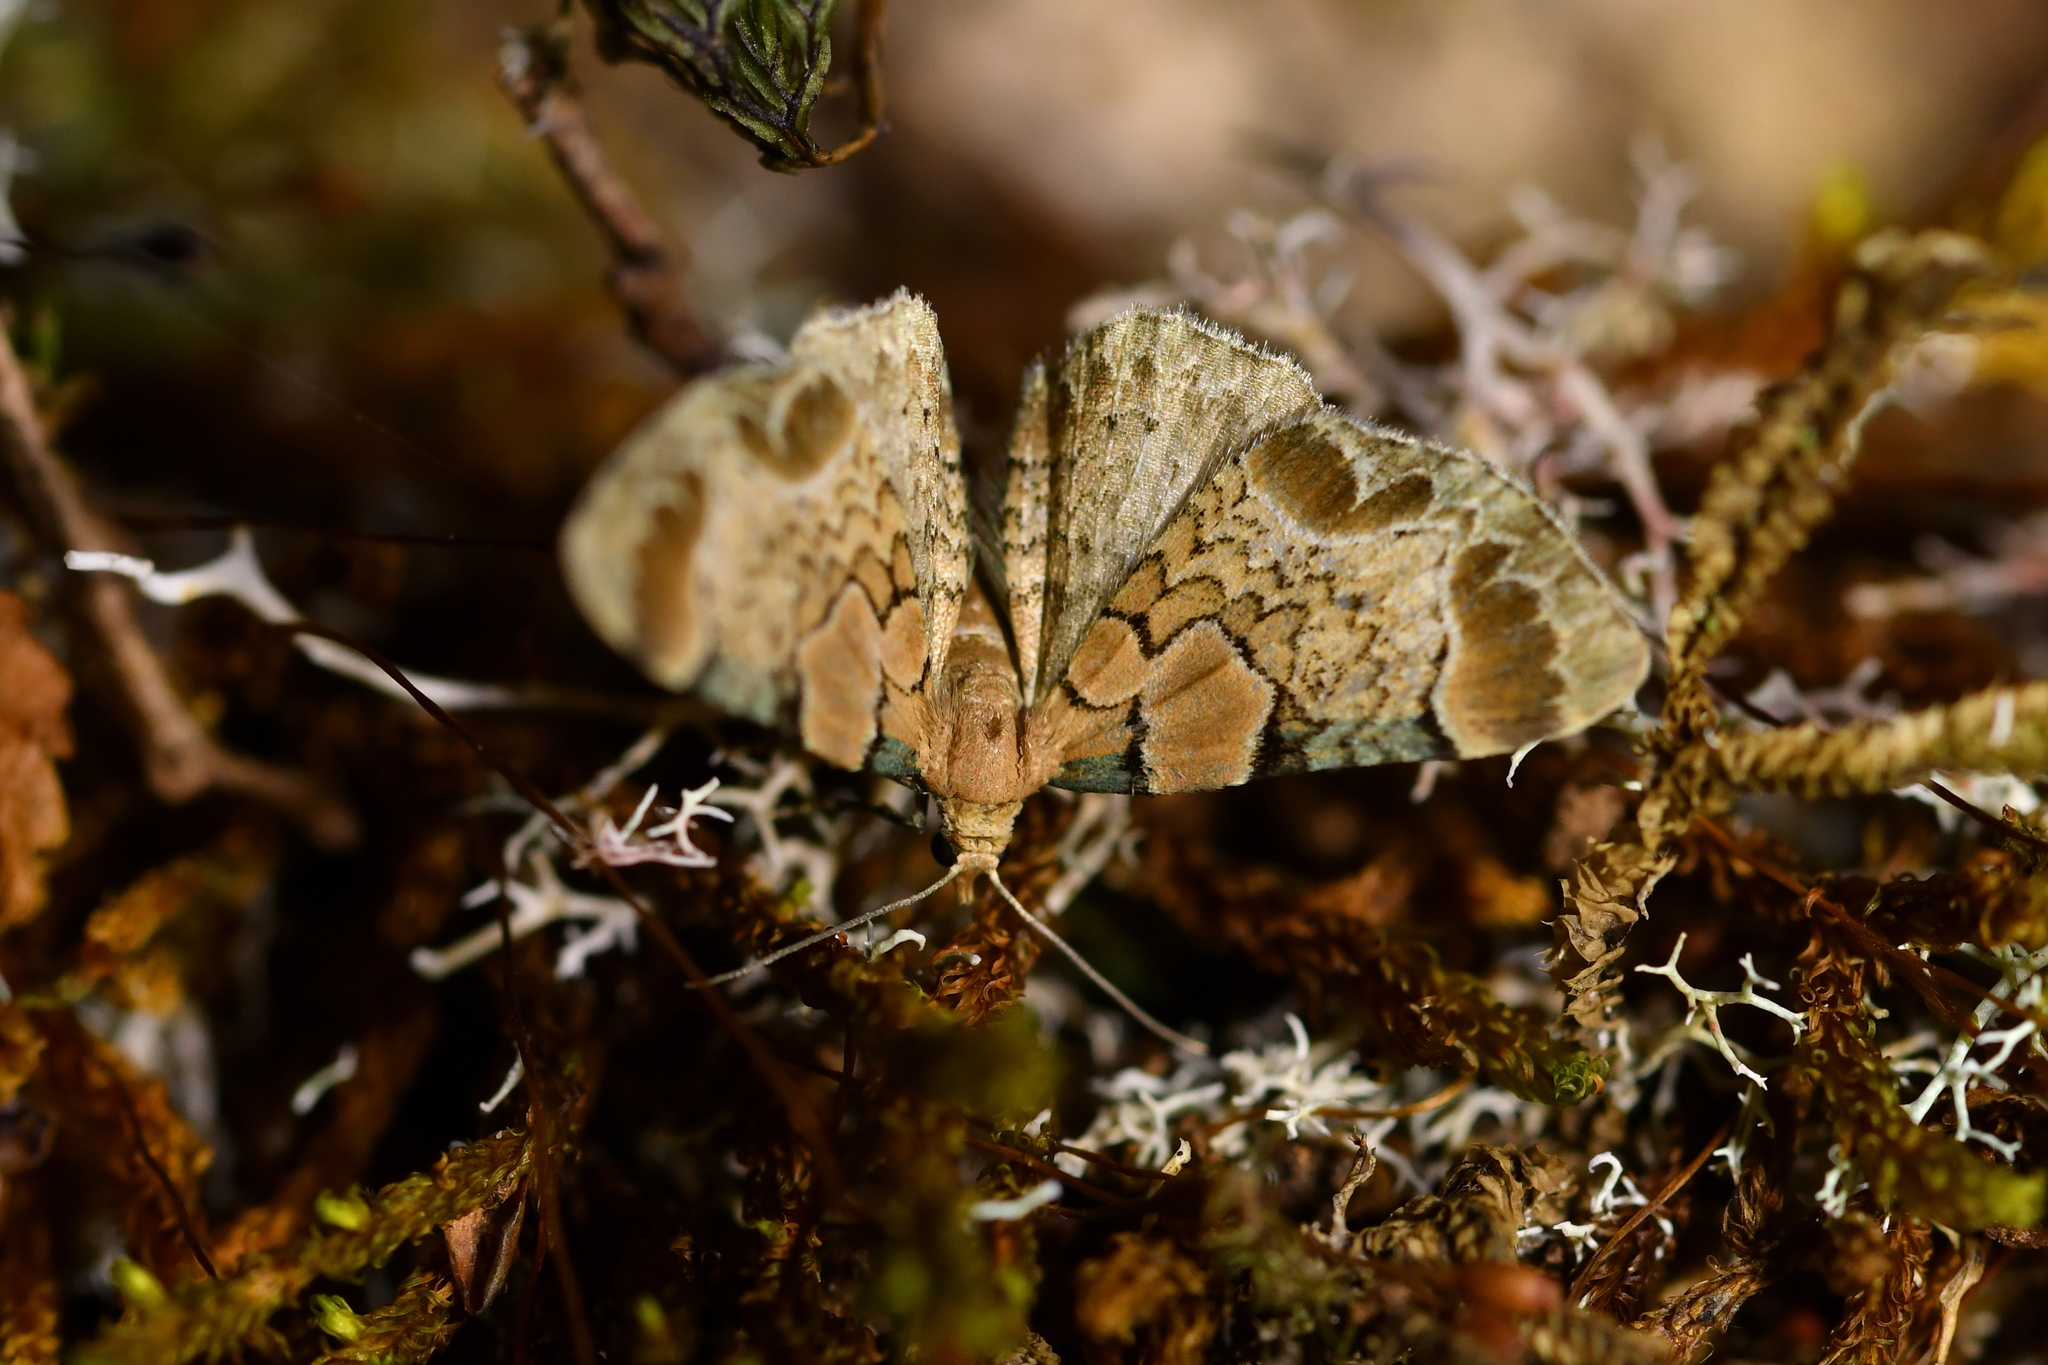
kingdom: Animalia
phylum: Arthropoda
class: Insecta
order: Lepidoptera
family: Geometridae
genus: Chloroclystis
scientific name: Chloroclystis
